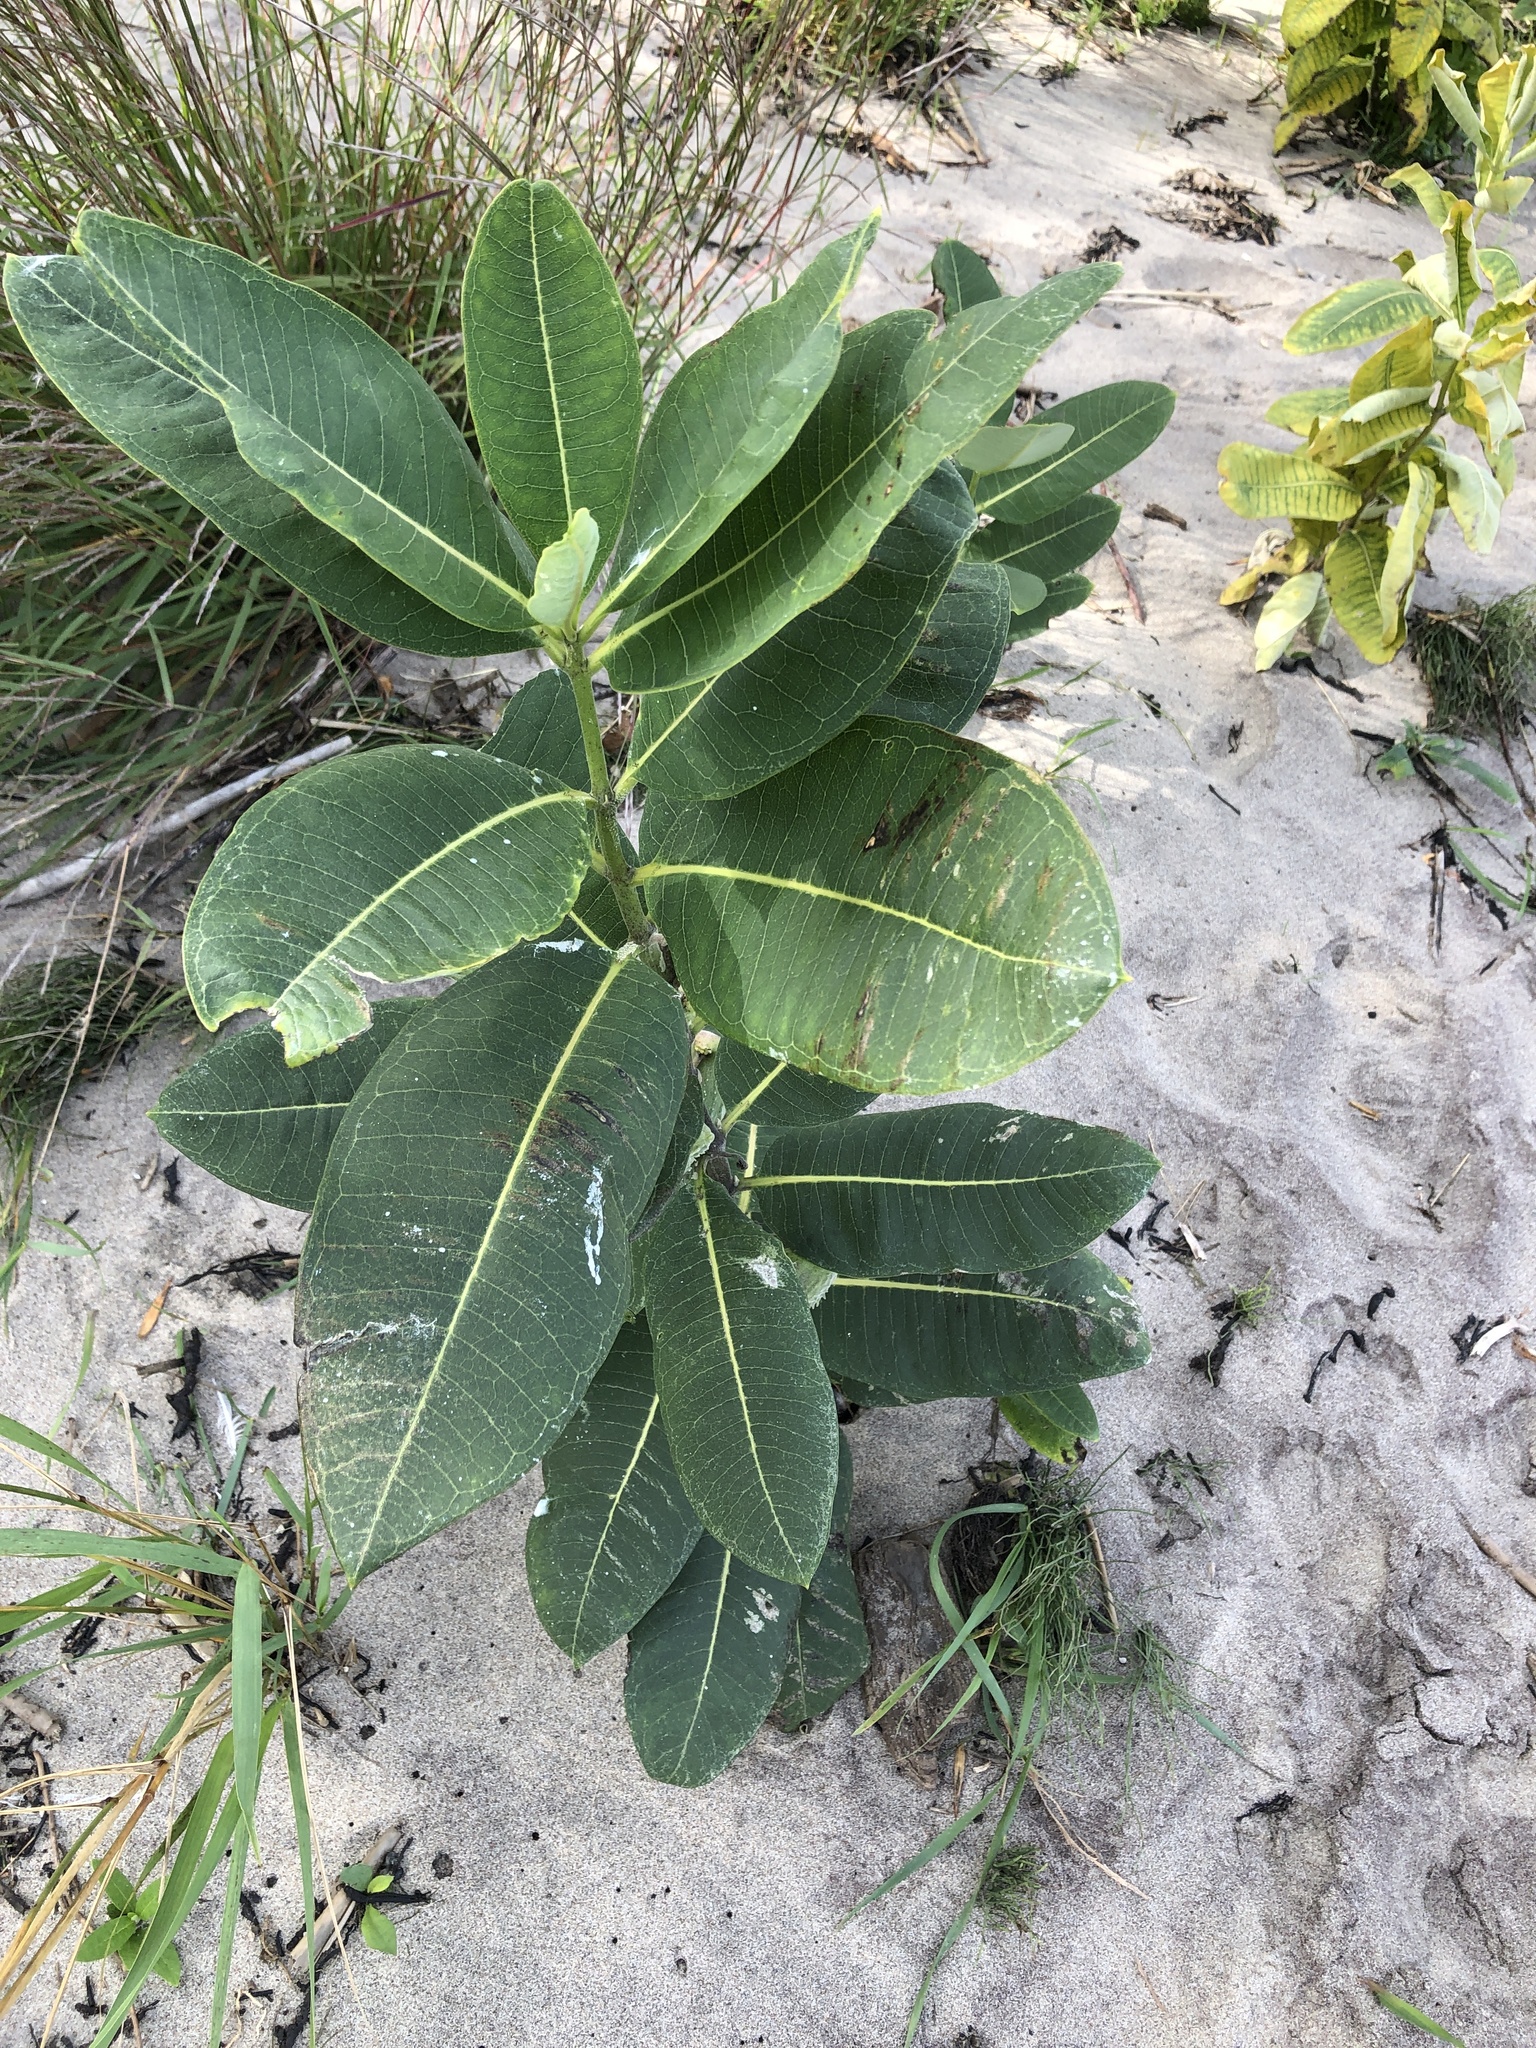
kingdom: Plantae
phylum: Tracheophyta
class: Magnoliopsida
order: Gentianales
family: Apocynaceae
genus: Asclepias
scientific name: Asclepias syriaca
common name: Common milkweed
